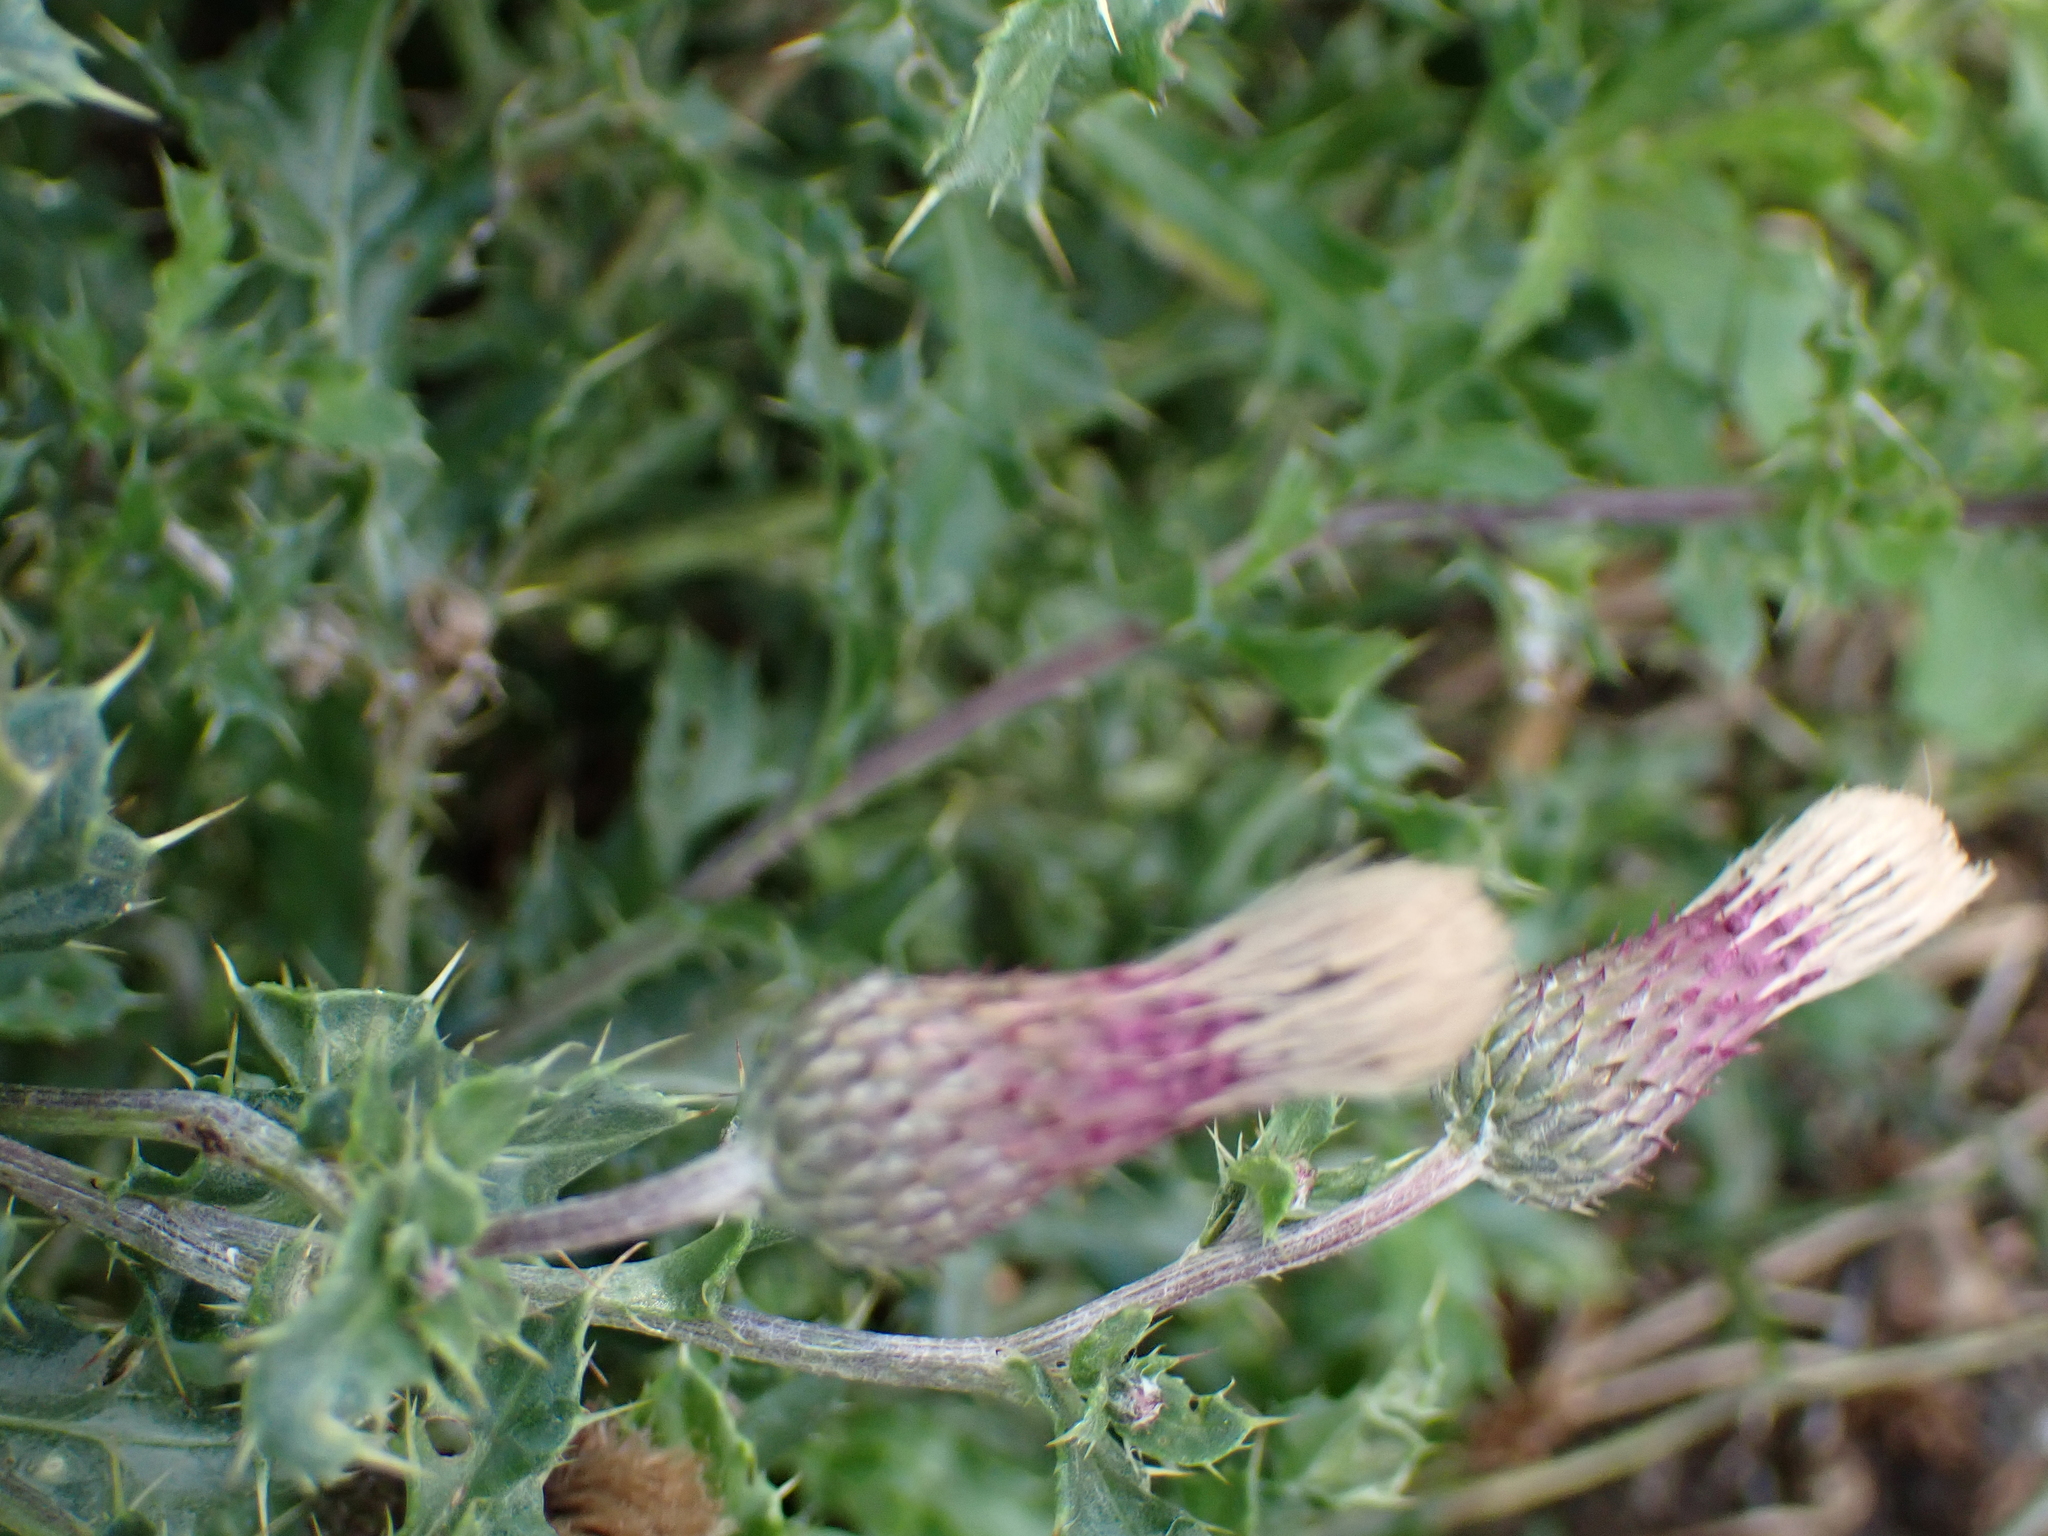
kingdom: Plantae
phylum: Tracheophyta
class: Magnoliopsida
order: Asterales
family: Asteraceae
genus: Cirsium
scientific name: Cirsium arvense
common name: Creeping thistle
